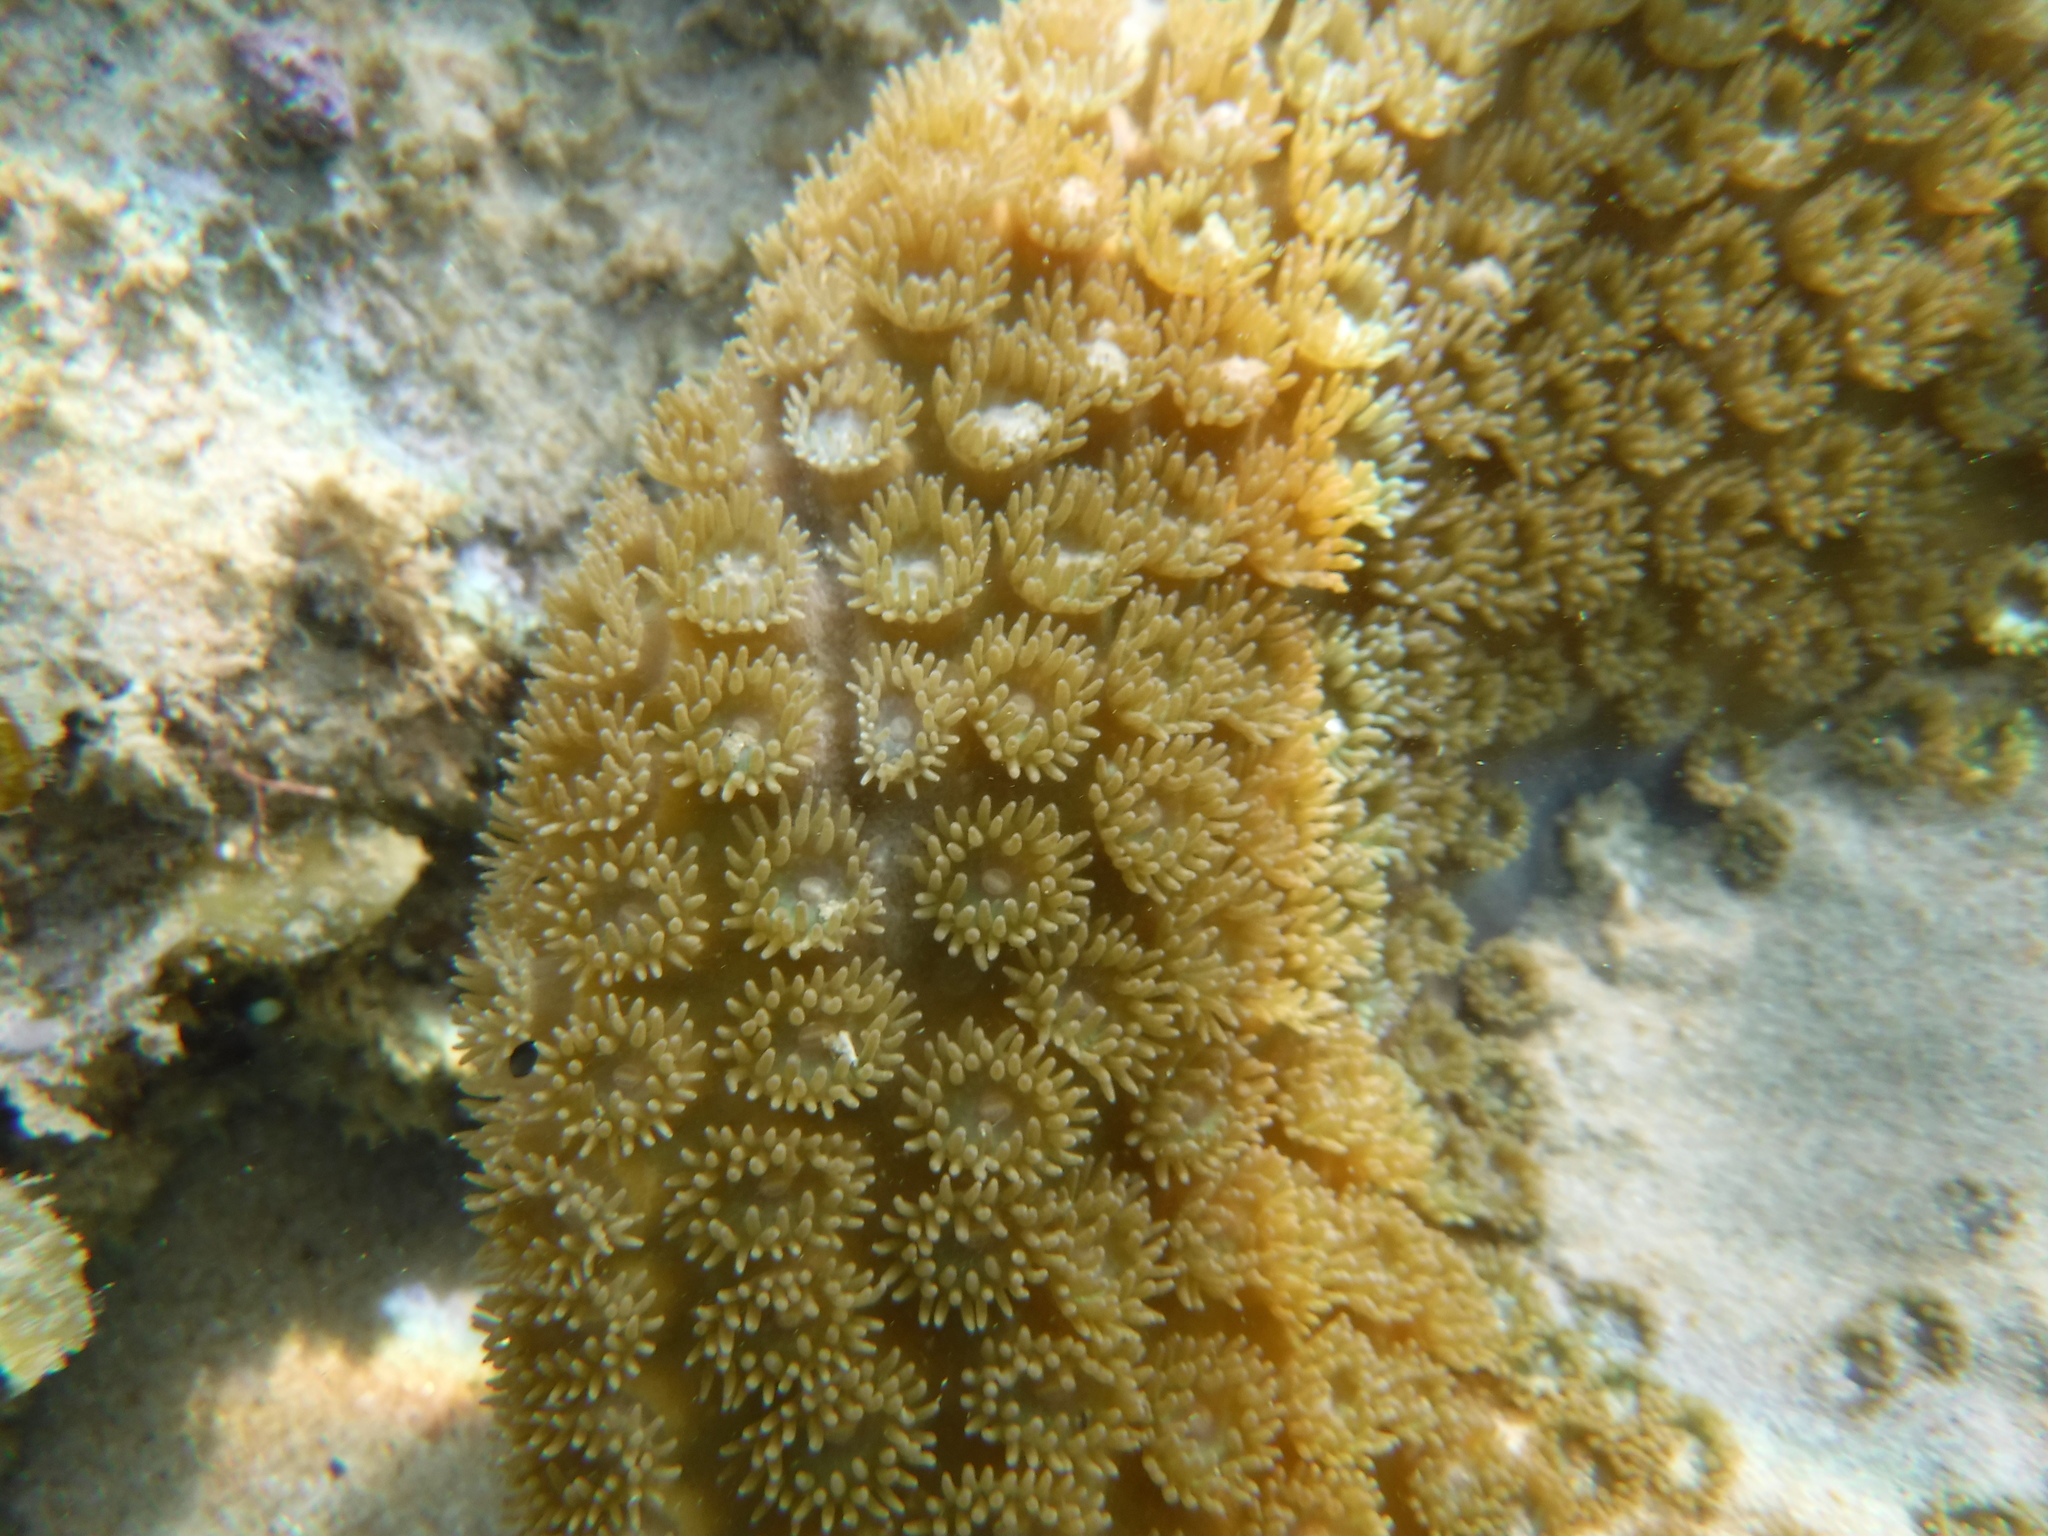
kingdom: Animalia
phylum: Cnidaria
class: Anthozoa
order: Scleractinia
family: Dendrophylliidae
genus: Duncanopsammia
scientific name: Duncanopsammia peltata
